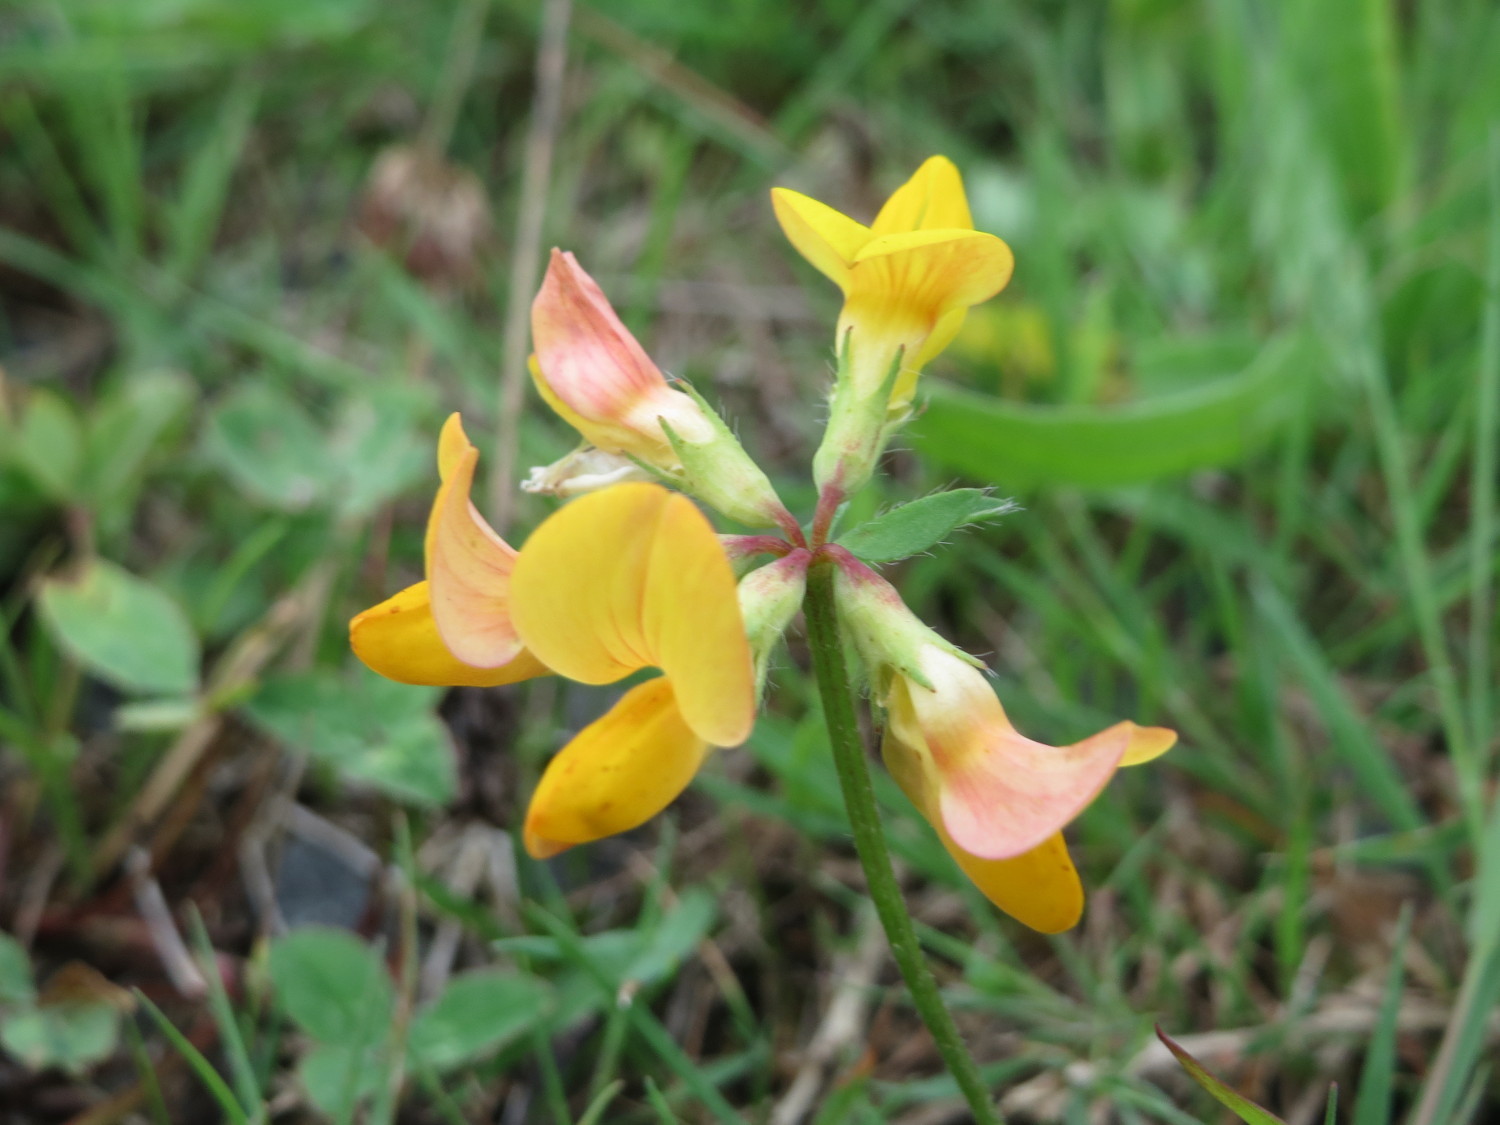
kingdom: Plantae
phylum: Tracheophyta
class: Magnoliopsida
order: Fabales
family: Fabaceae
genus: Lotus
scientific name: Lotus corniculatus
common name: Common bird's-foot-trefoil
